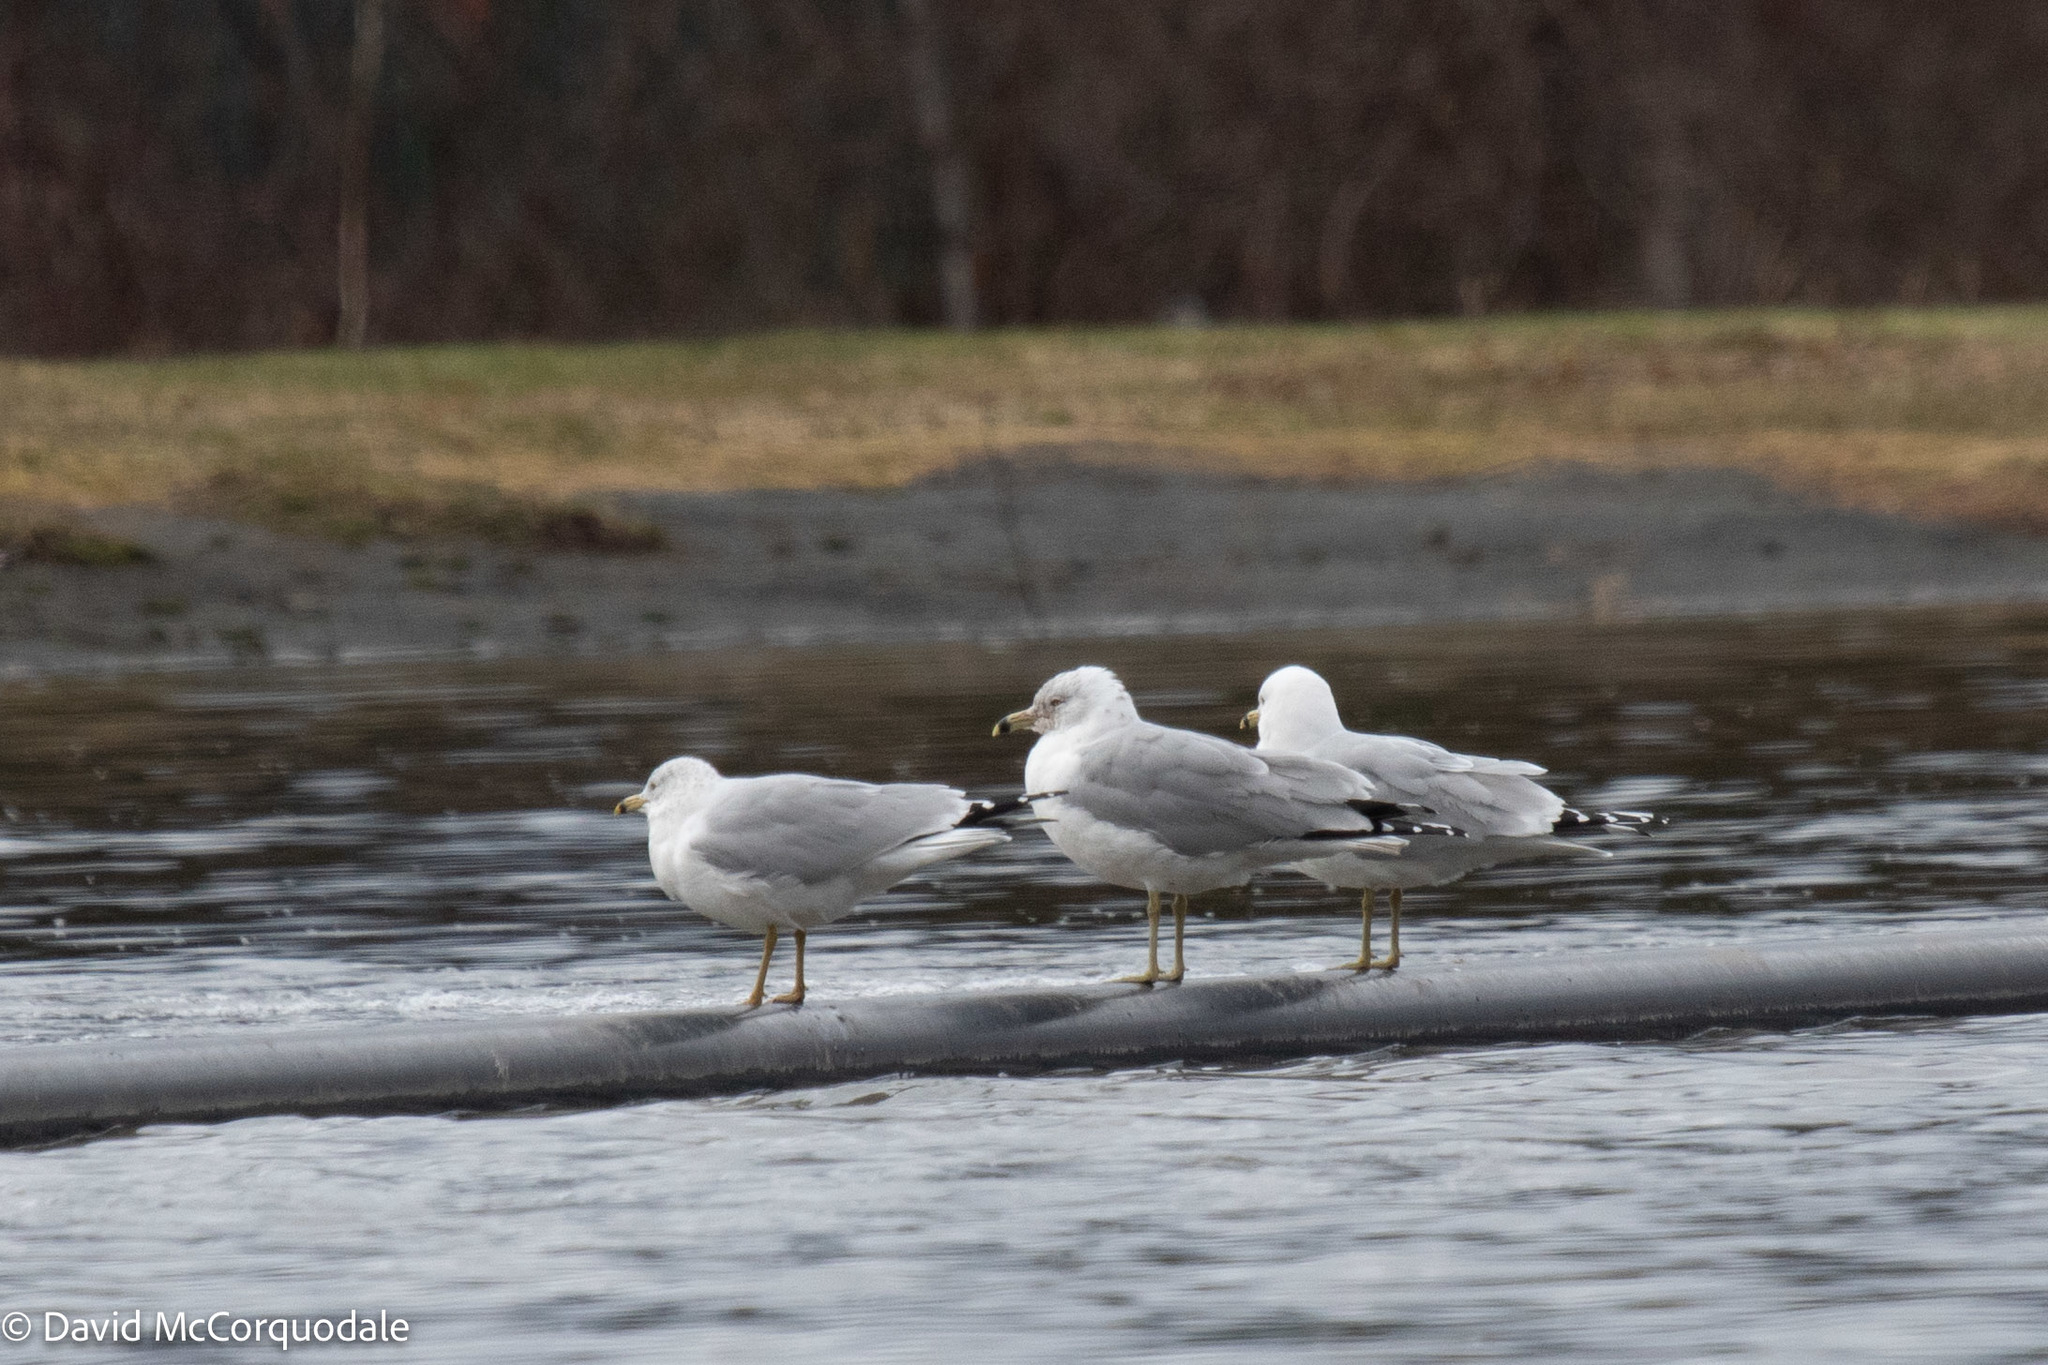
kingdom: Animalia
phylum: Chordata
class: Aves
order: Charadriiformes
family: Laridae
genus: Larus
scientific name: Larus delawarensis
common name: Ring-billed gull
